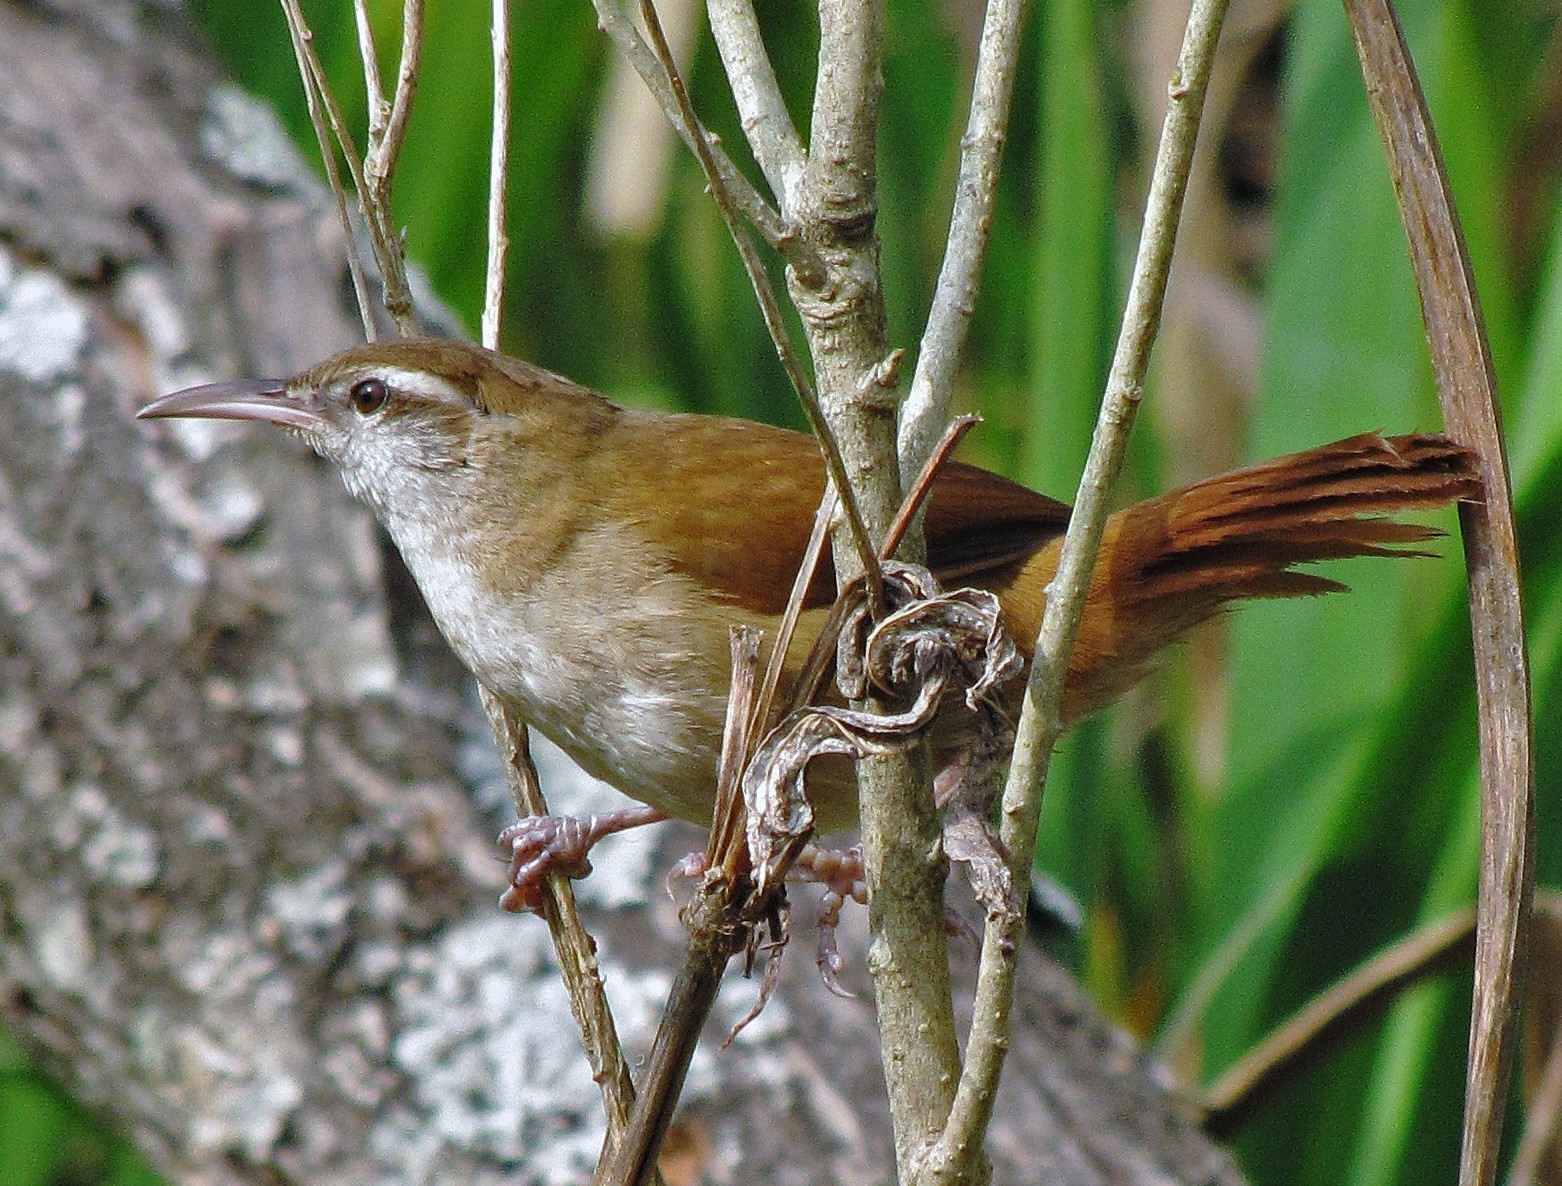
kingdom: Animalia
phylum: Chordata
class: Aves
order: Passeriformes
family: Furnariidae
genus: Limnornis
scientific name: Limnornis curvirostris
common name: Curve-billed reedhaunter
